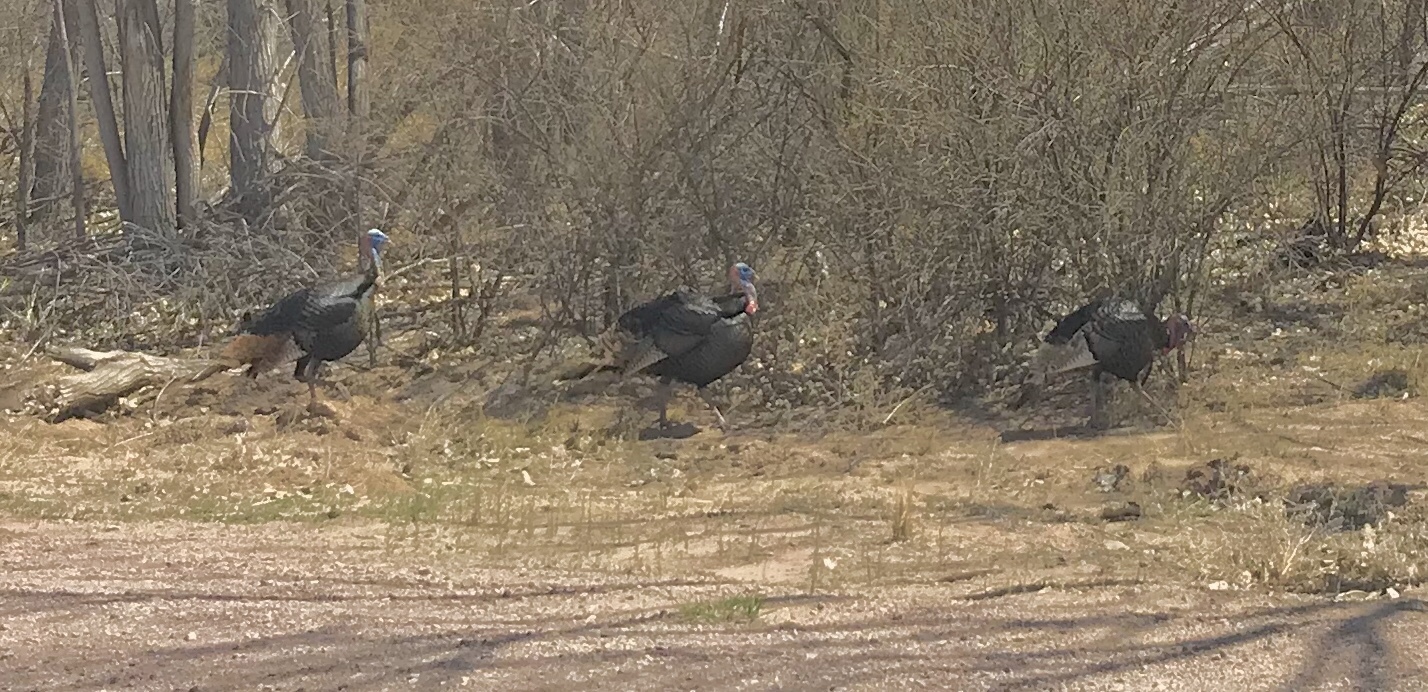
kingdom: Animalia
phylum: Chordata
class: Aves
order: Galliformes
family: Phasianidae
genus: Meleagris
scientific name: Meleagris gallopavo
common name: Wild turkey
